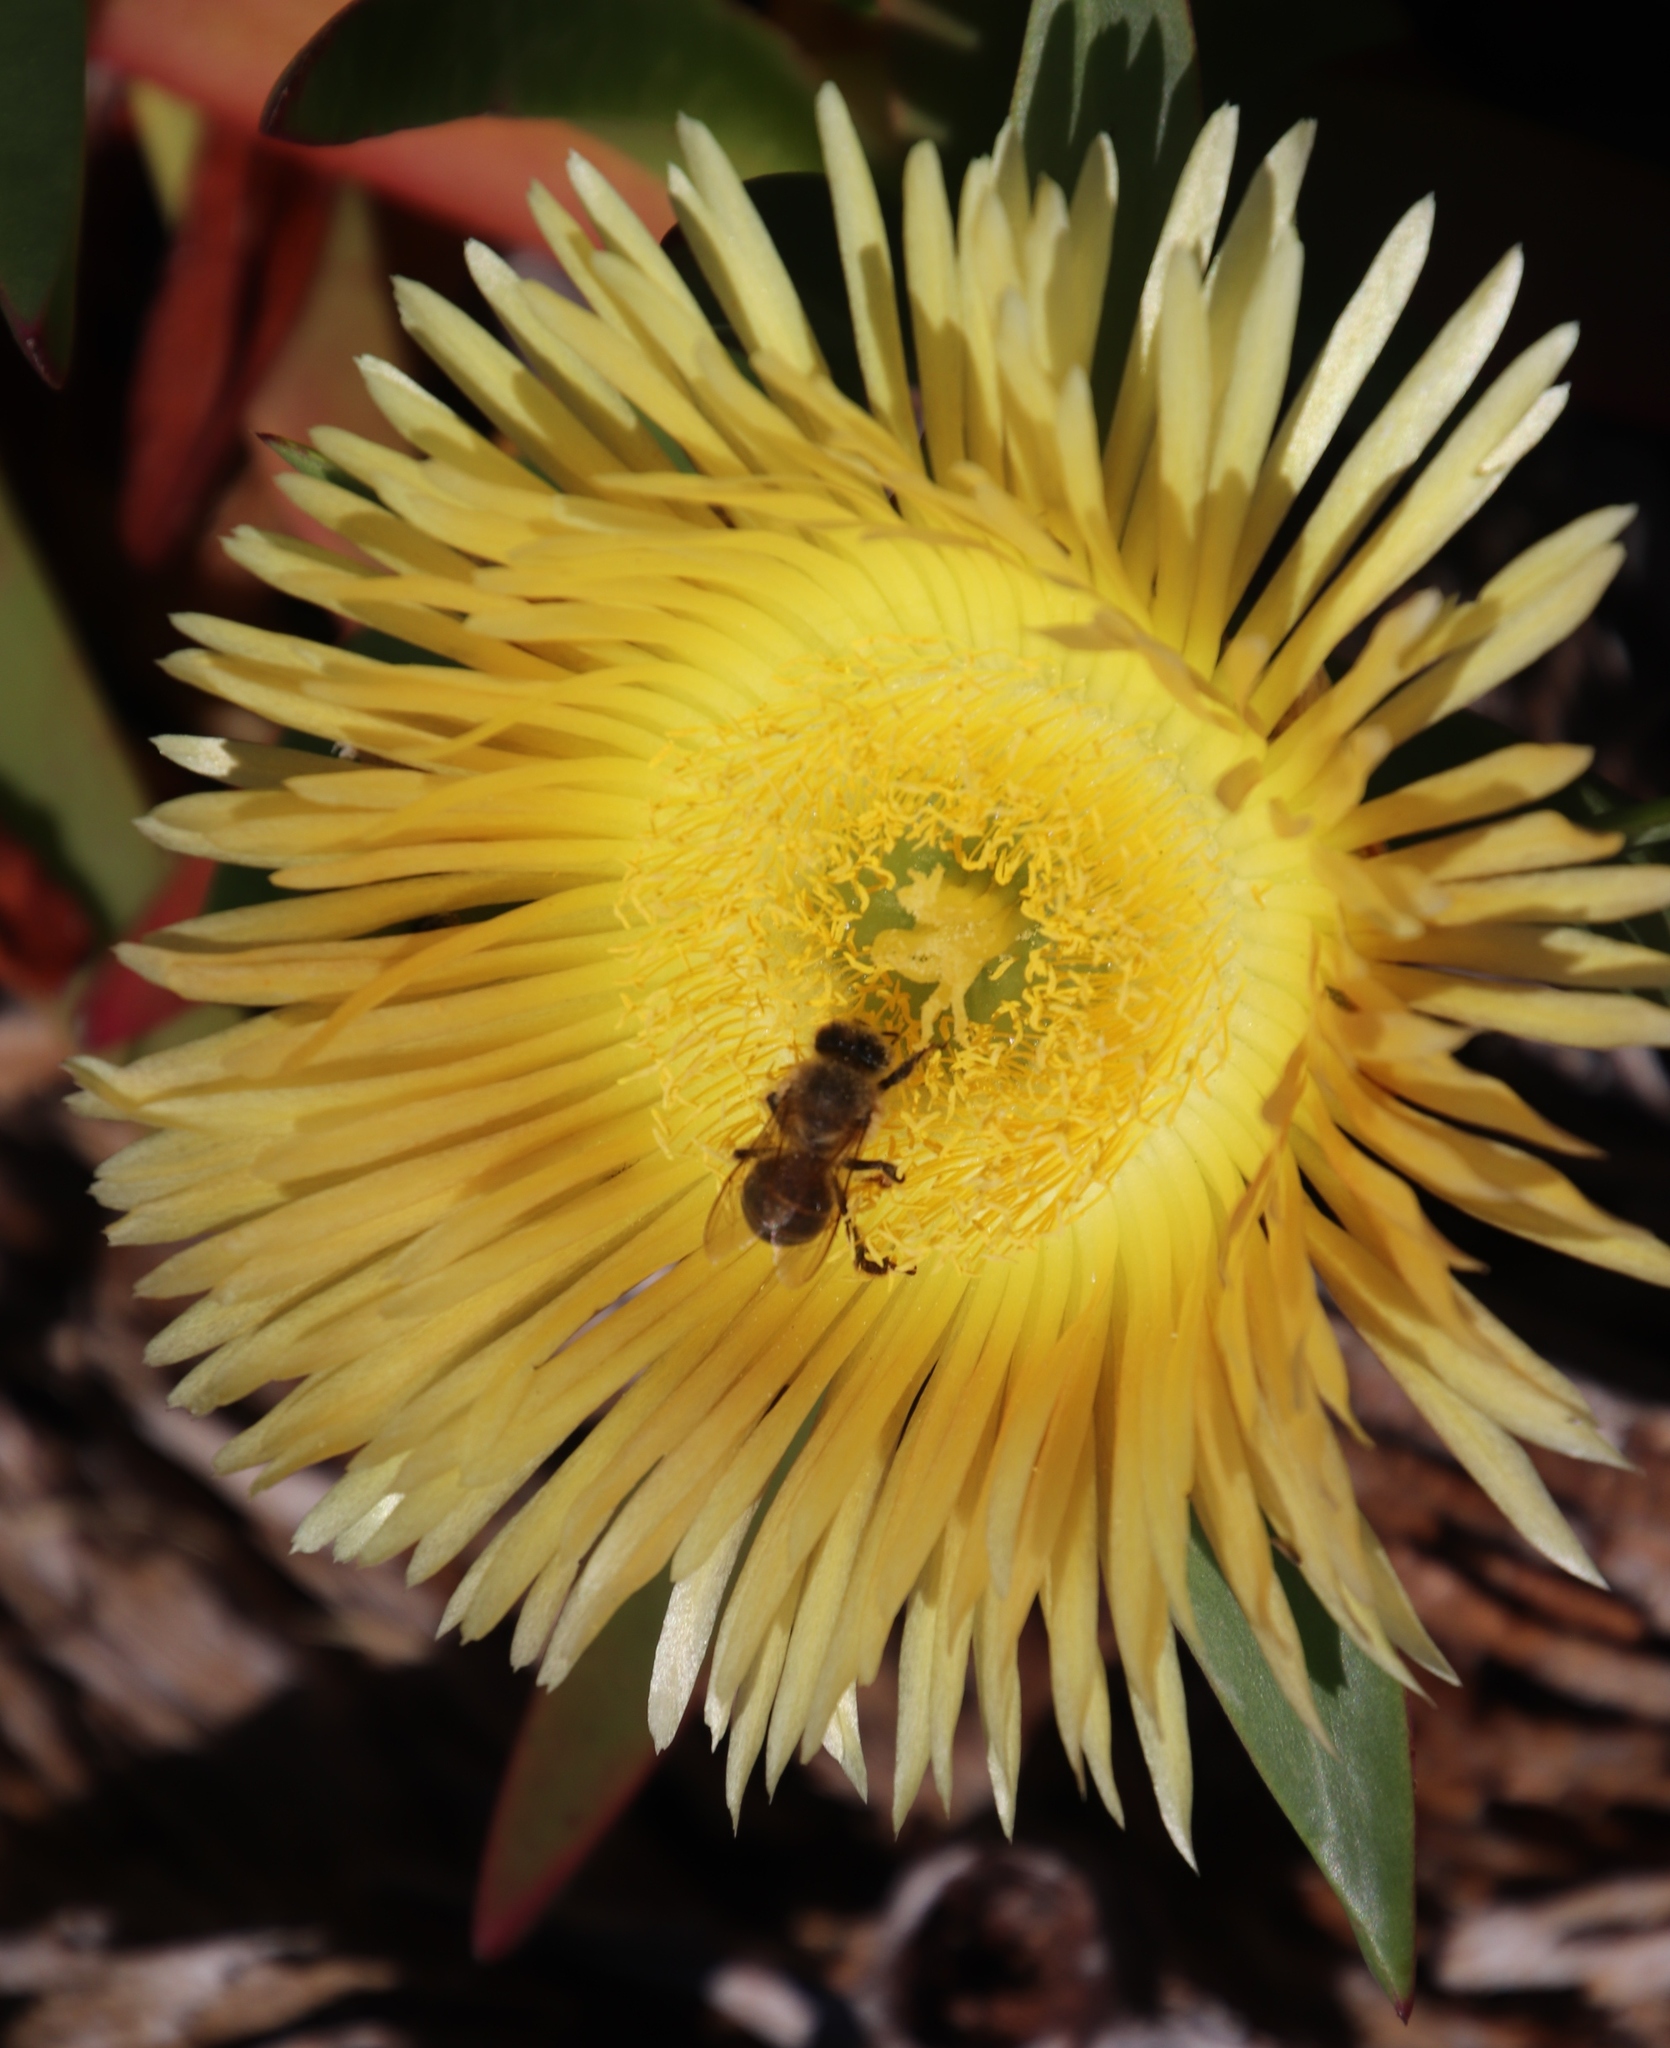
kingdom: Plantae
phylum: Tracheophyta
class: Magnoliopsida
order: Caryophyllales
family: Aizoaceae
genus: Carpobrotus
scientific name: Carpobrotus edulis
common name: Hottentot-fig
